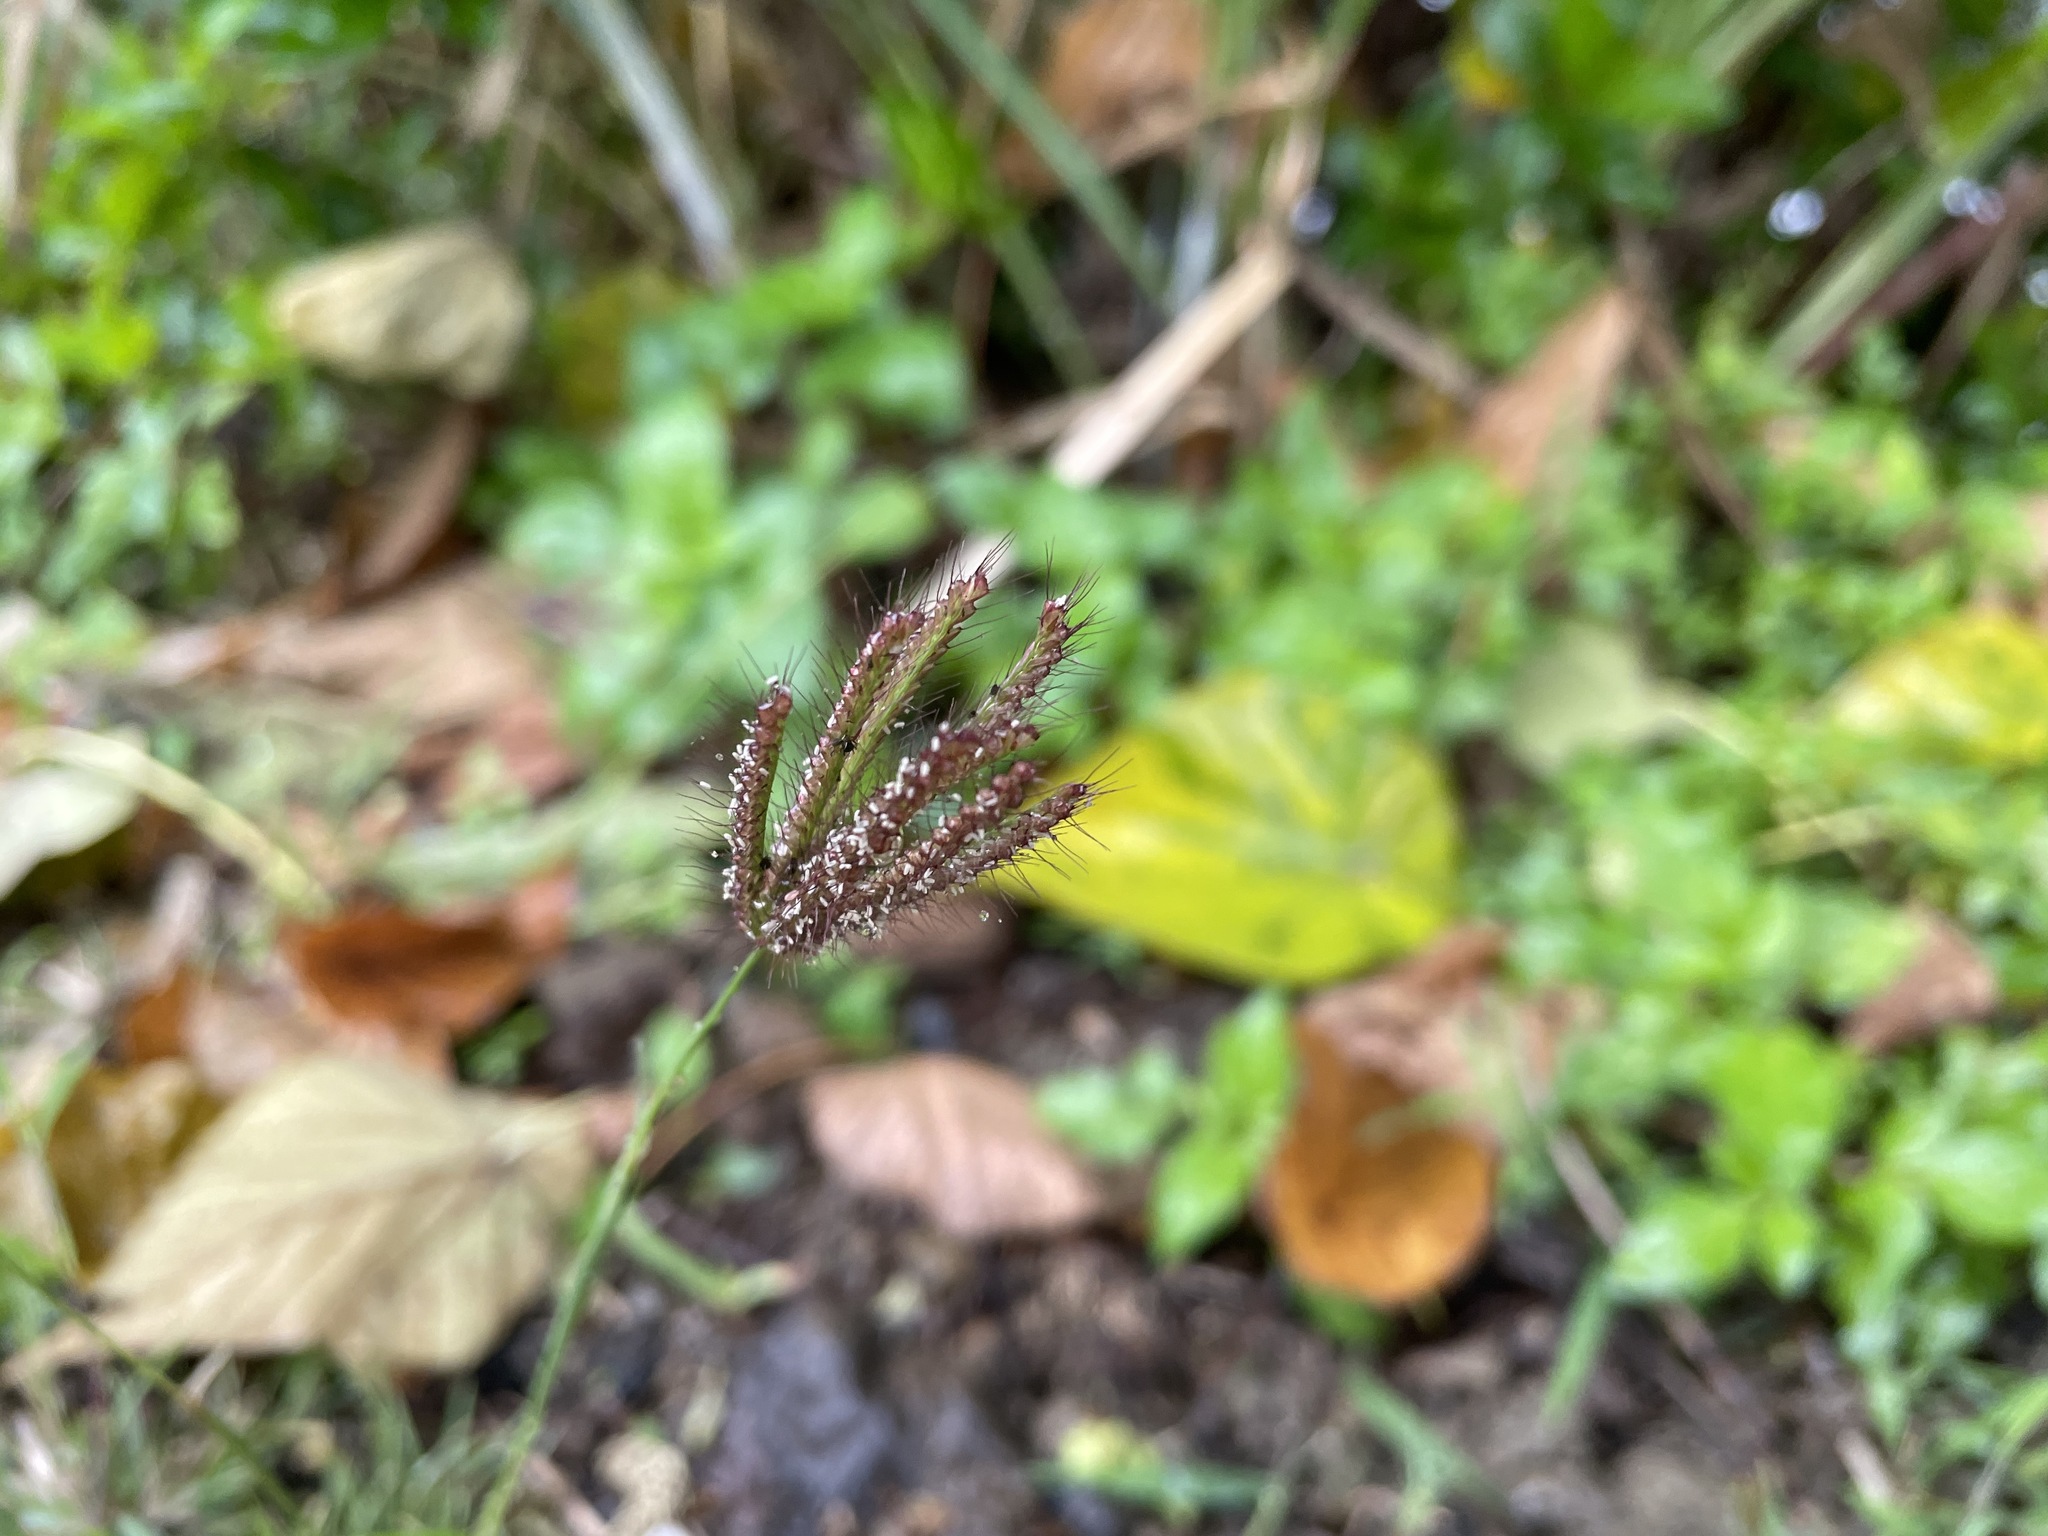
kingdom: Plantae
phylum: Tracheophyta
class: Liliopsida
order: Poales
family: Poaceae
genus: Chloris
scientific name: Chloris barbata
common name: Swollen fingergrass
